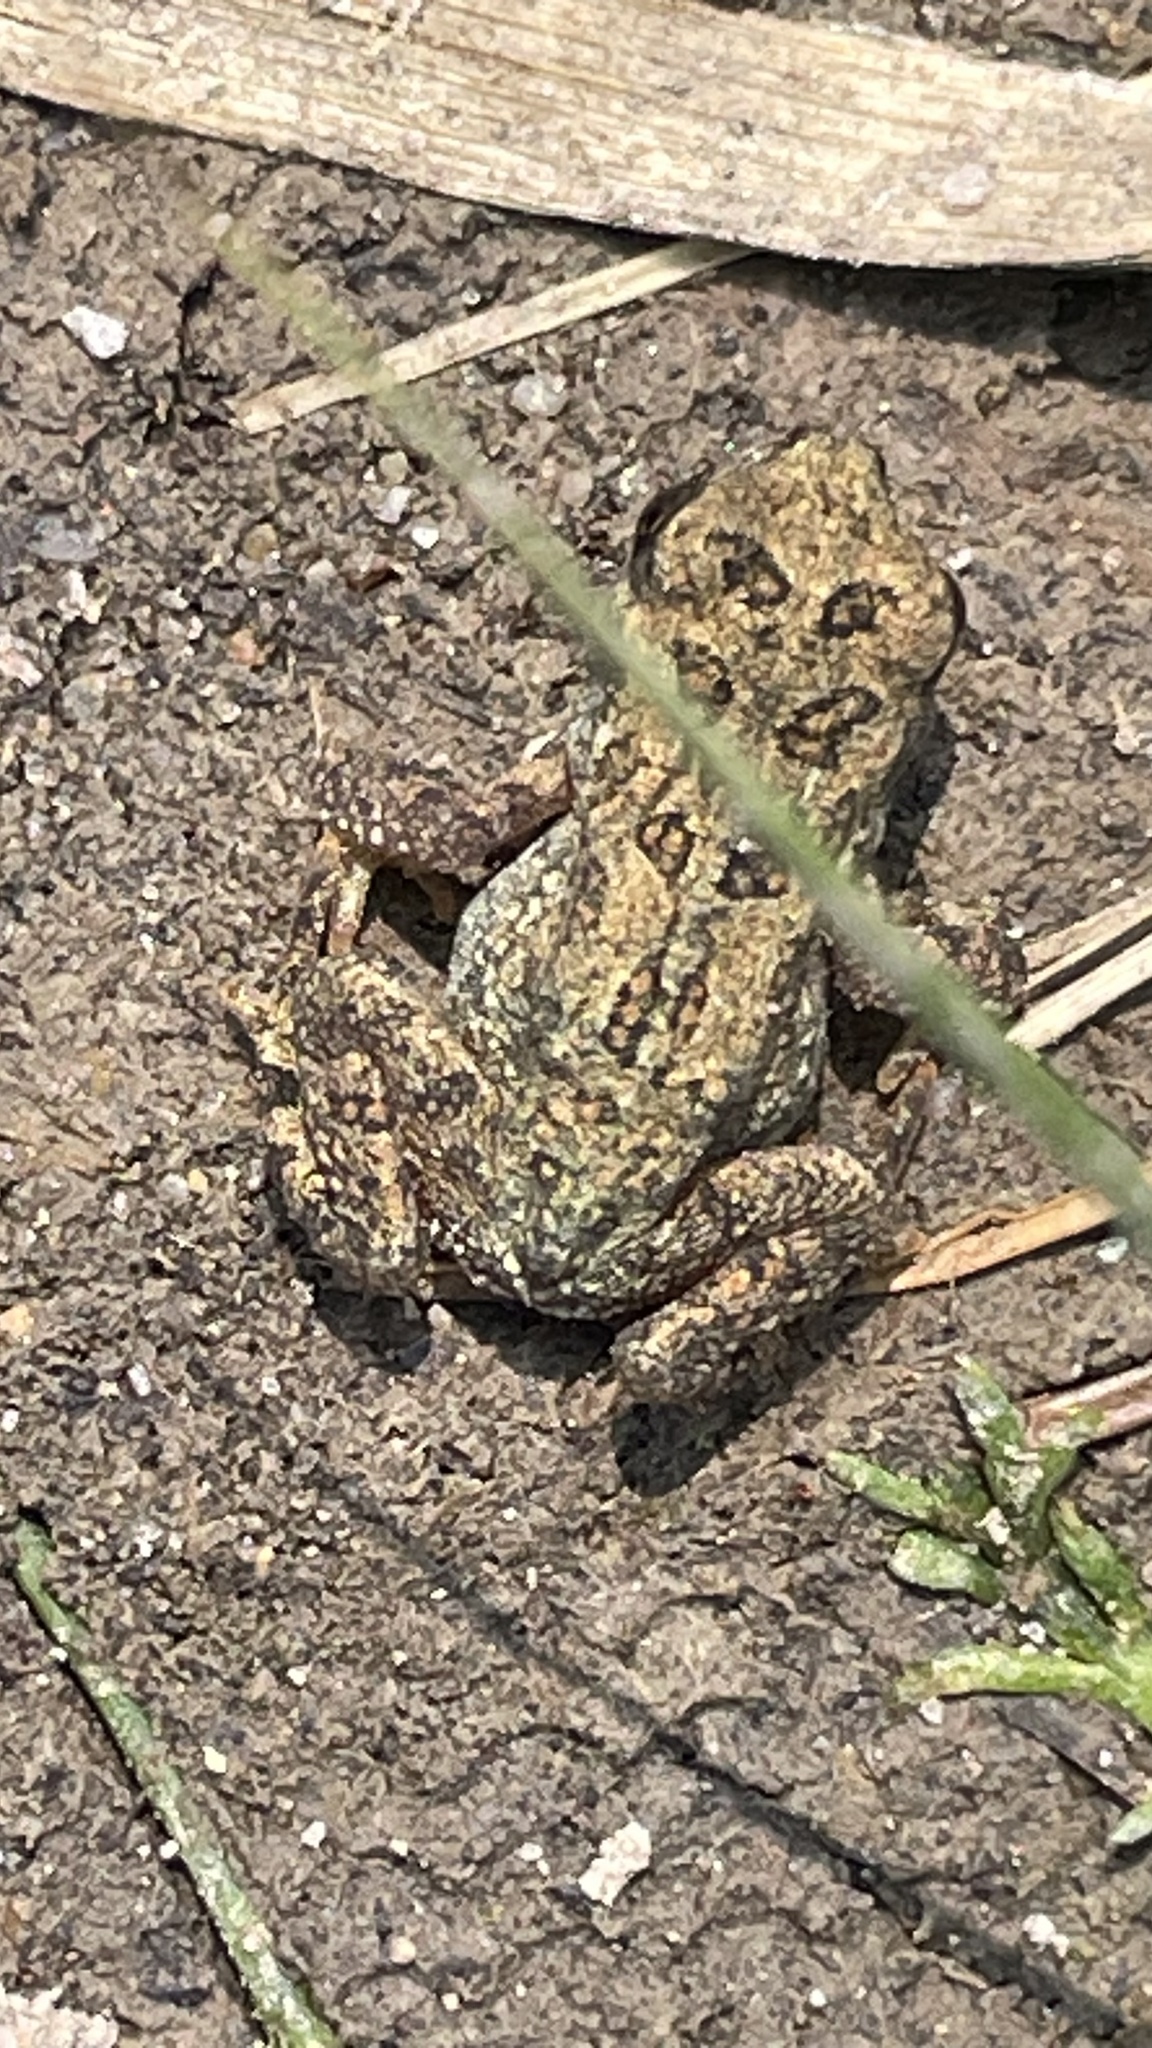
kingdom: Animalia
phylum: Chordata
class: Amphibia
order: Anura
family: Bufonidae
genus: Anaxyrus
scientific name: Anaxyrus americanus
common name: American toad
